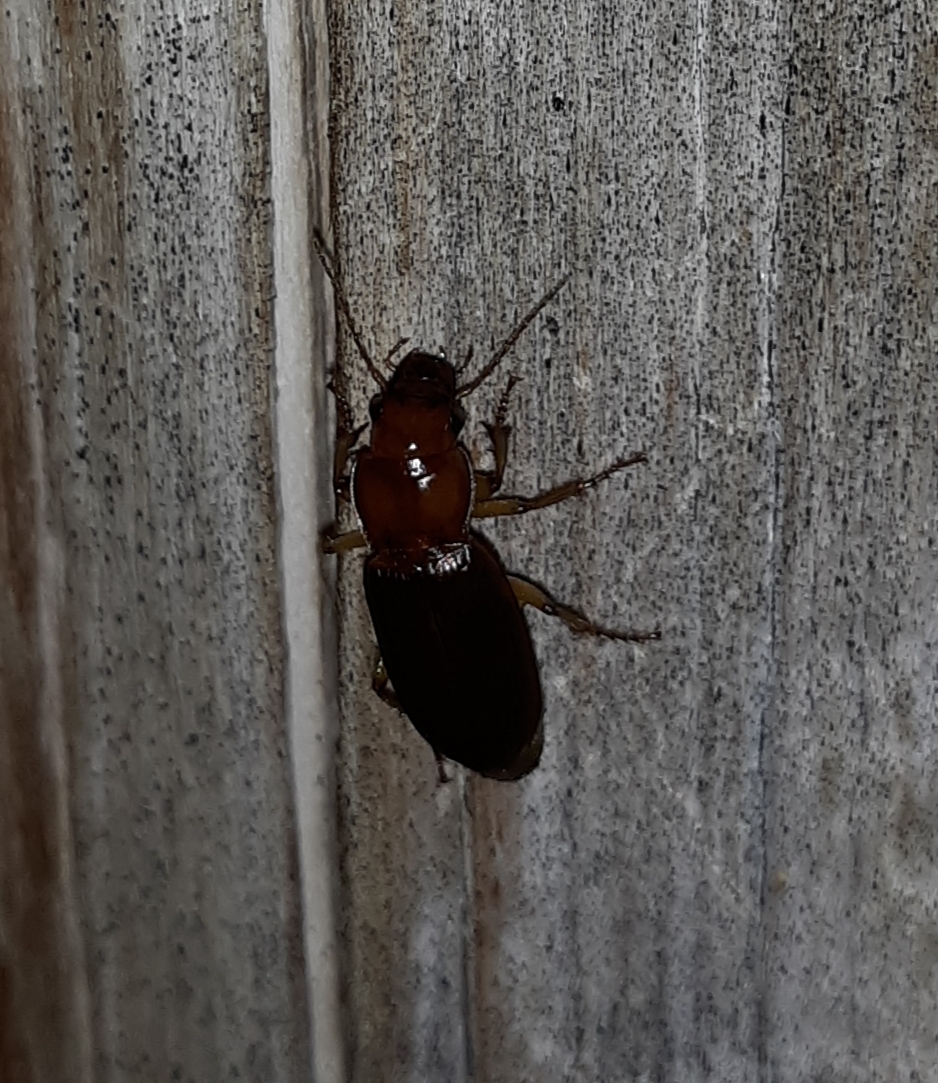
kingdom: Animalia
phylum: Arthropoda
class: Insecta
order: Coleoptera
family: Carabidae
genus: Harpalus
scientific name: Harpalus erraticus
